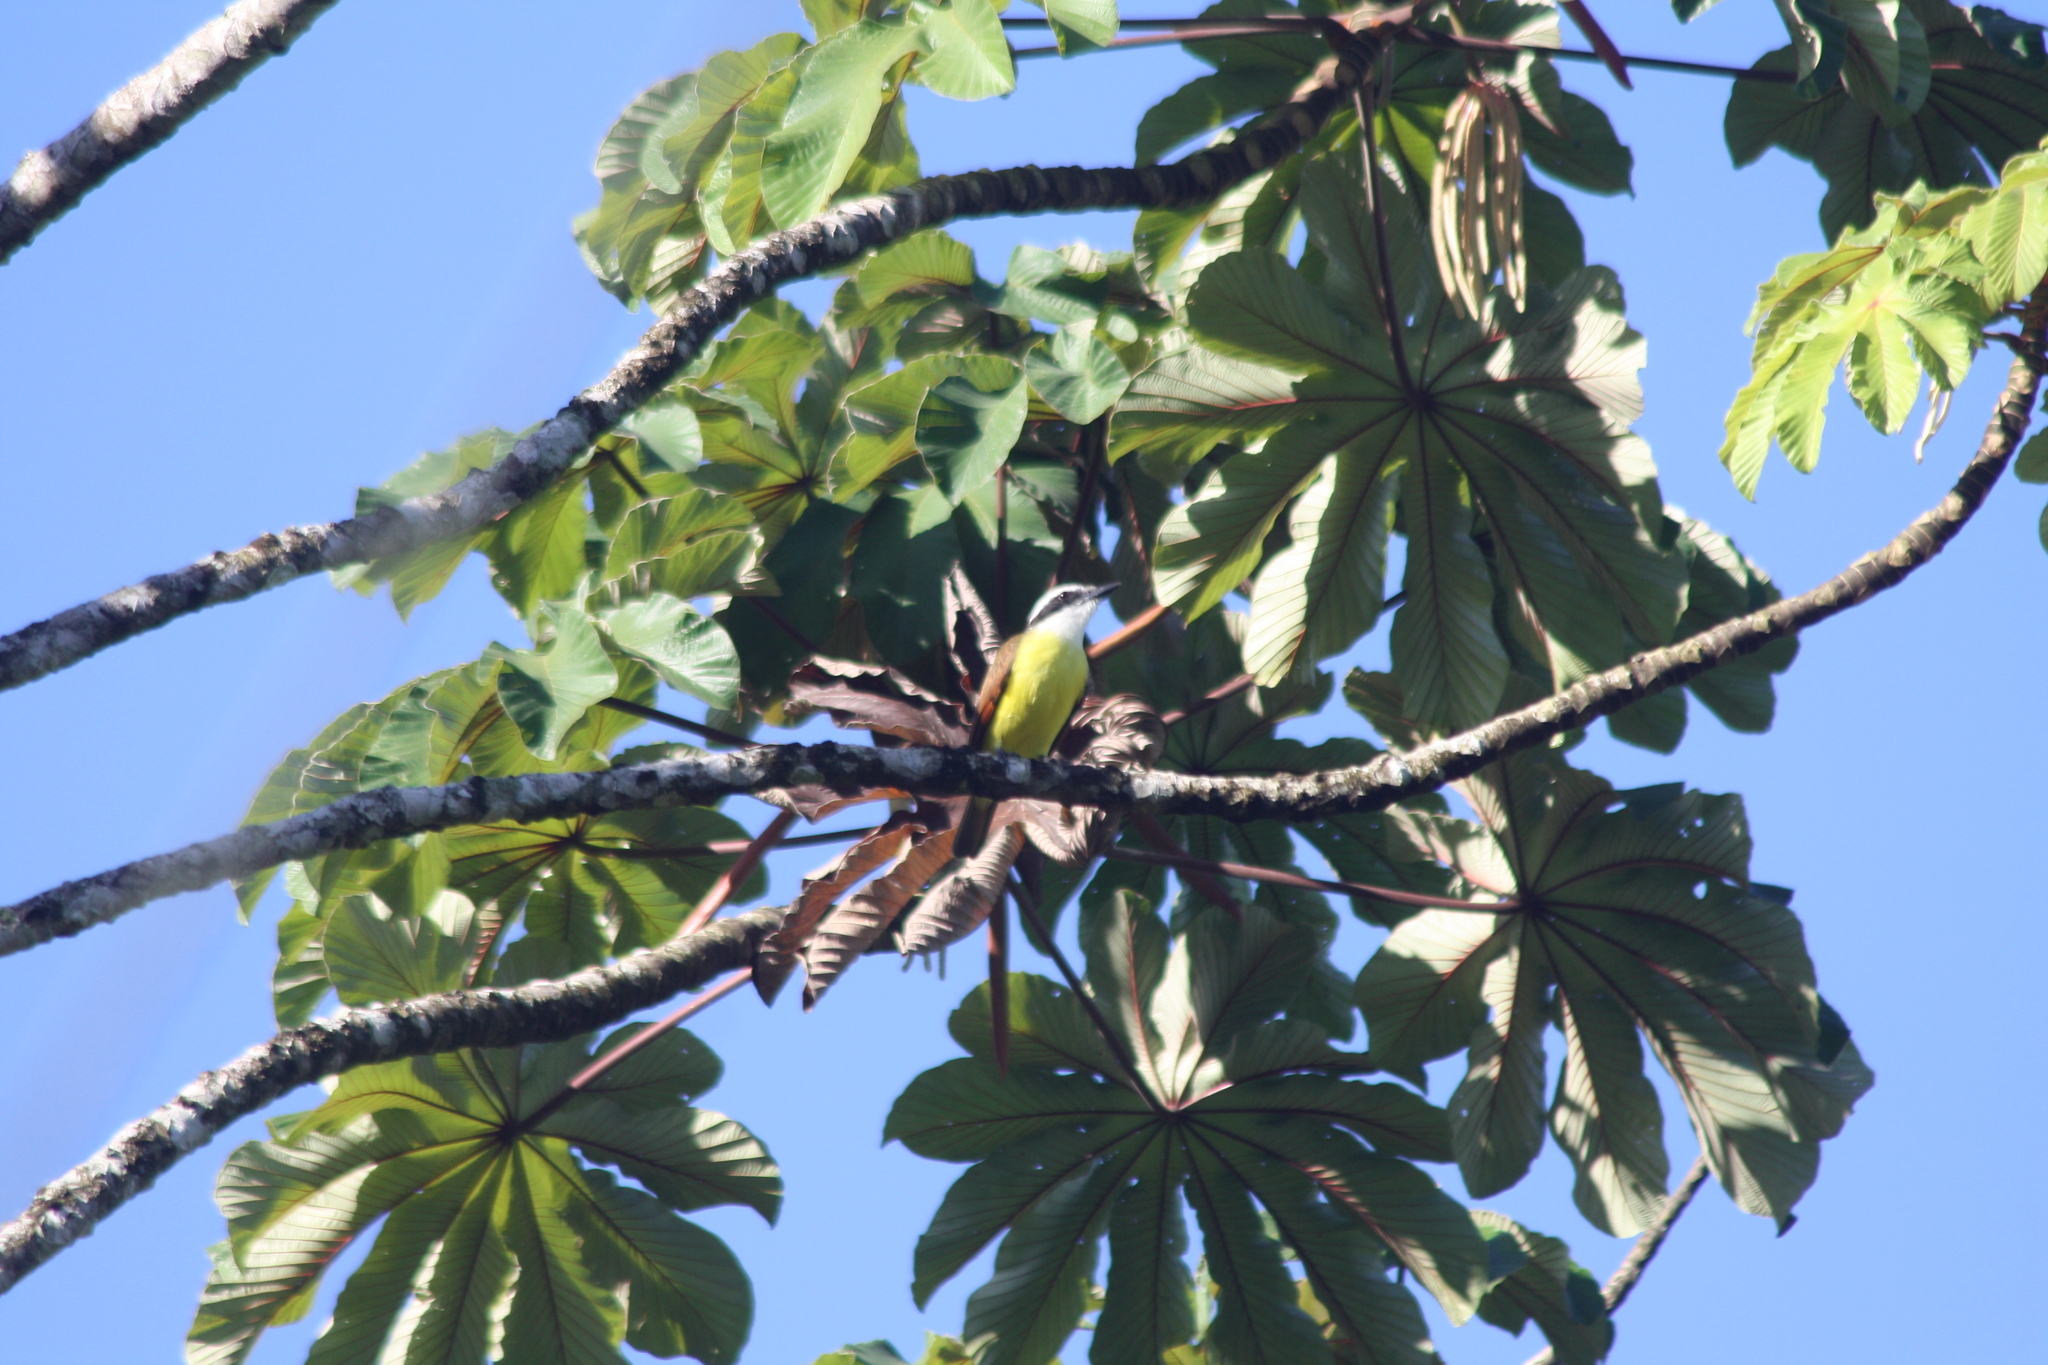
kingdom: Animalia
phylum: Chordata
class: Aves
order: Passeriformes
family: Tyrannidae
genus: Pitangus
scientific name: Pitangus sulphuratus
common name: Great kiskadee
